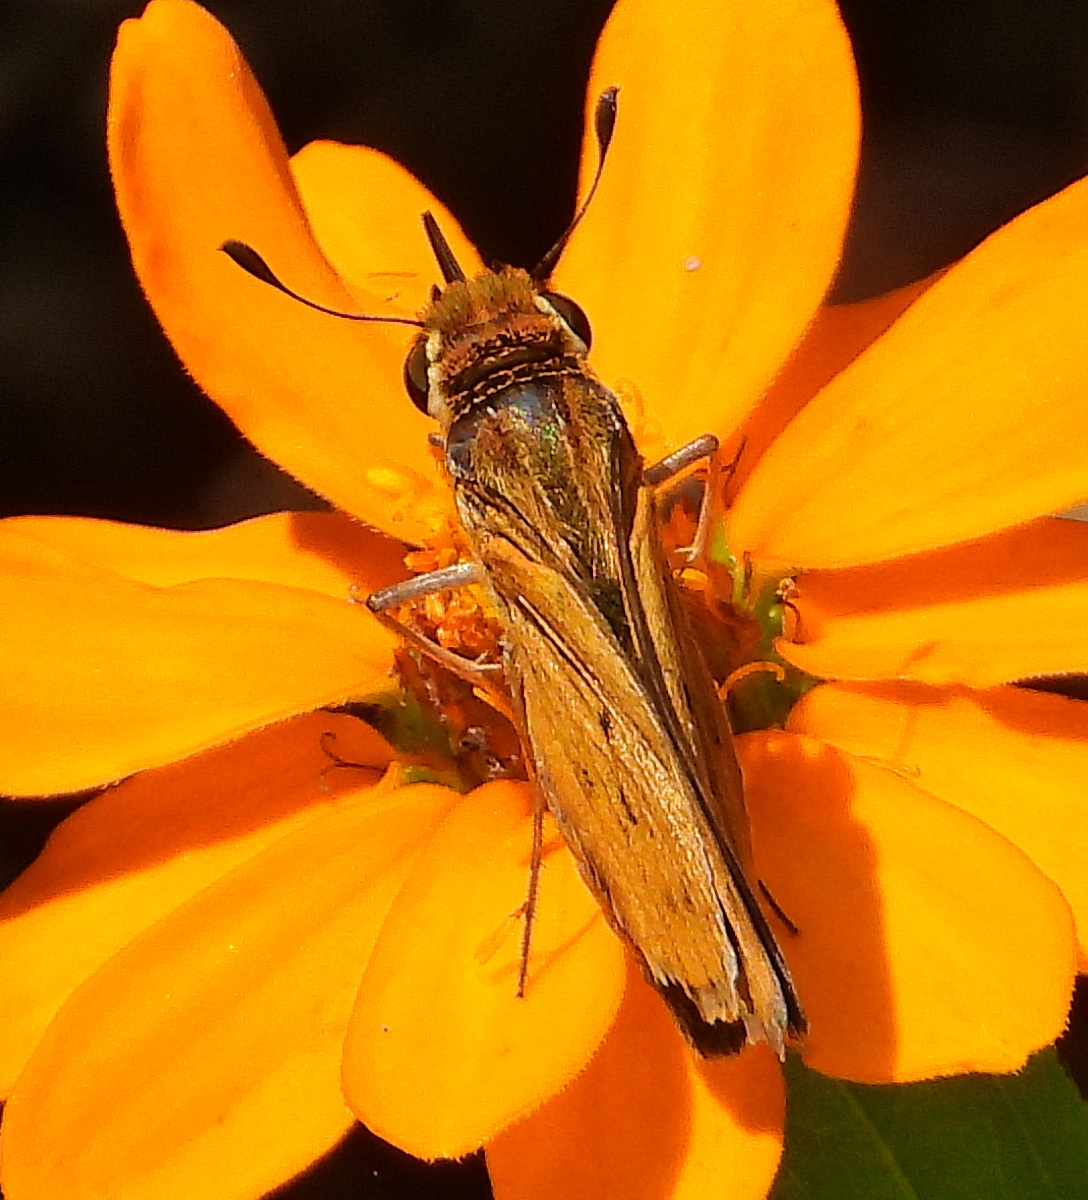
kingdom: Animalia
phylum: Arthropoda
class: Insecta
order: Lepidoptera
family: Hesperiidae
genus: Hylephila
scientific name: Hylephila phyleus
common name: Fiery skipper
